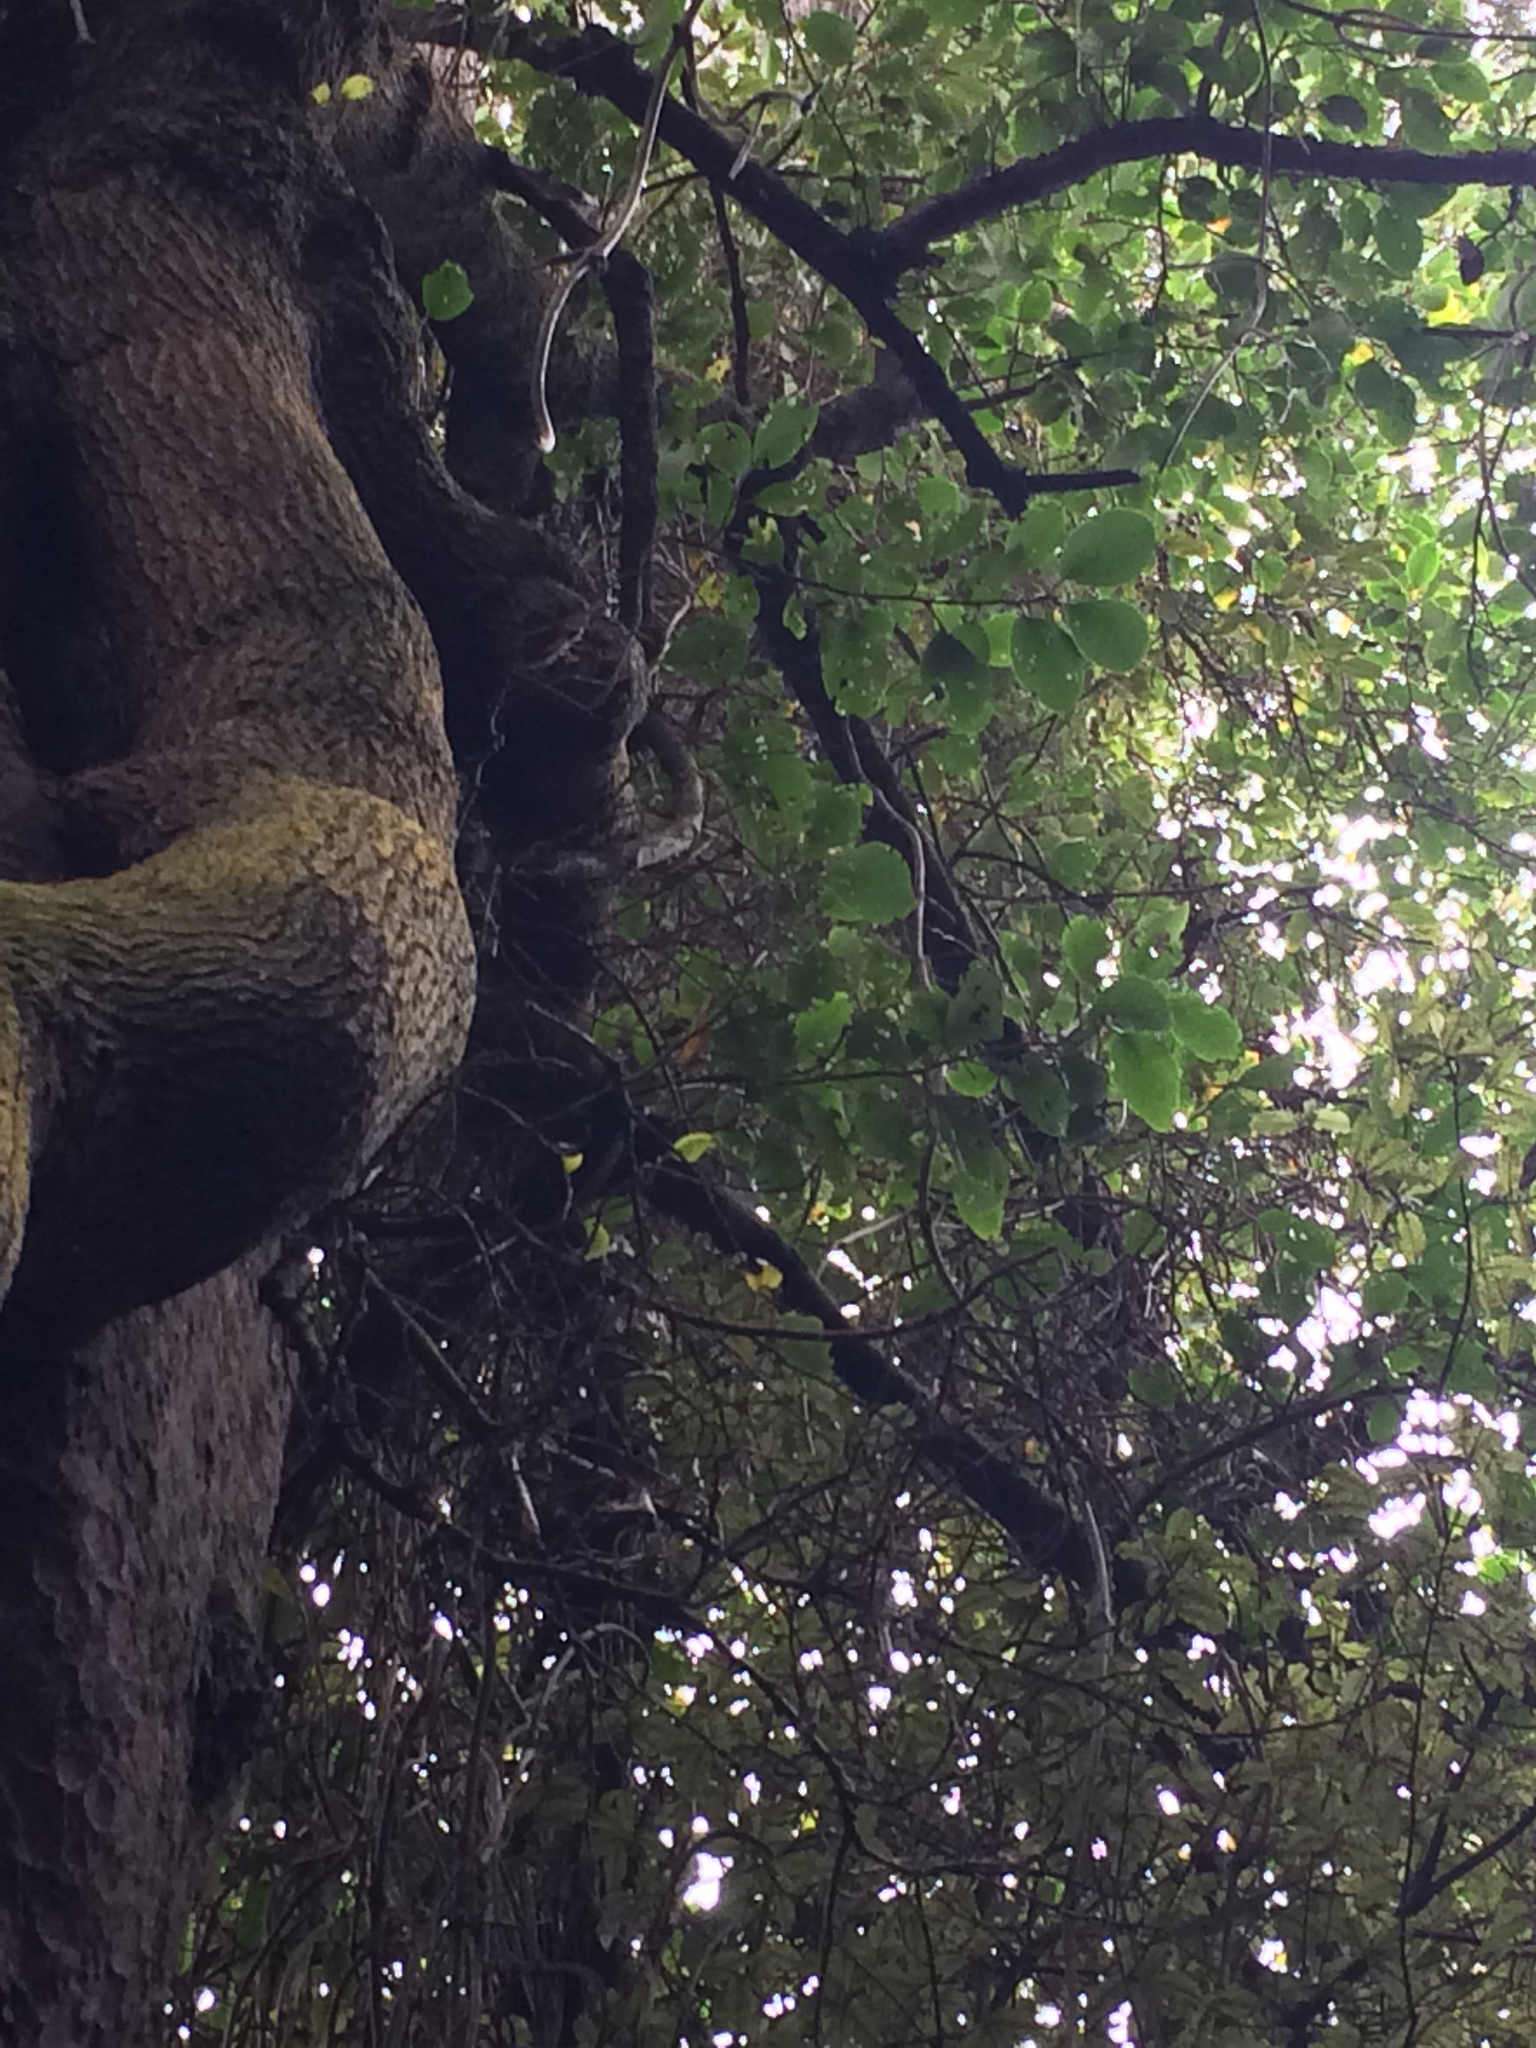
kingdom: Plantae
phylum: Tracheophyta
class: Magnoliopsida
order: Apiales
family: Griseliniaceae
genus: Griselinia
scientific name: Griselinia littoralis
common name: New zealand broadleaf
